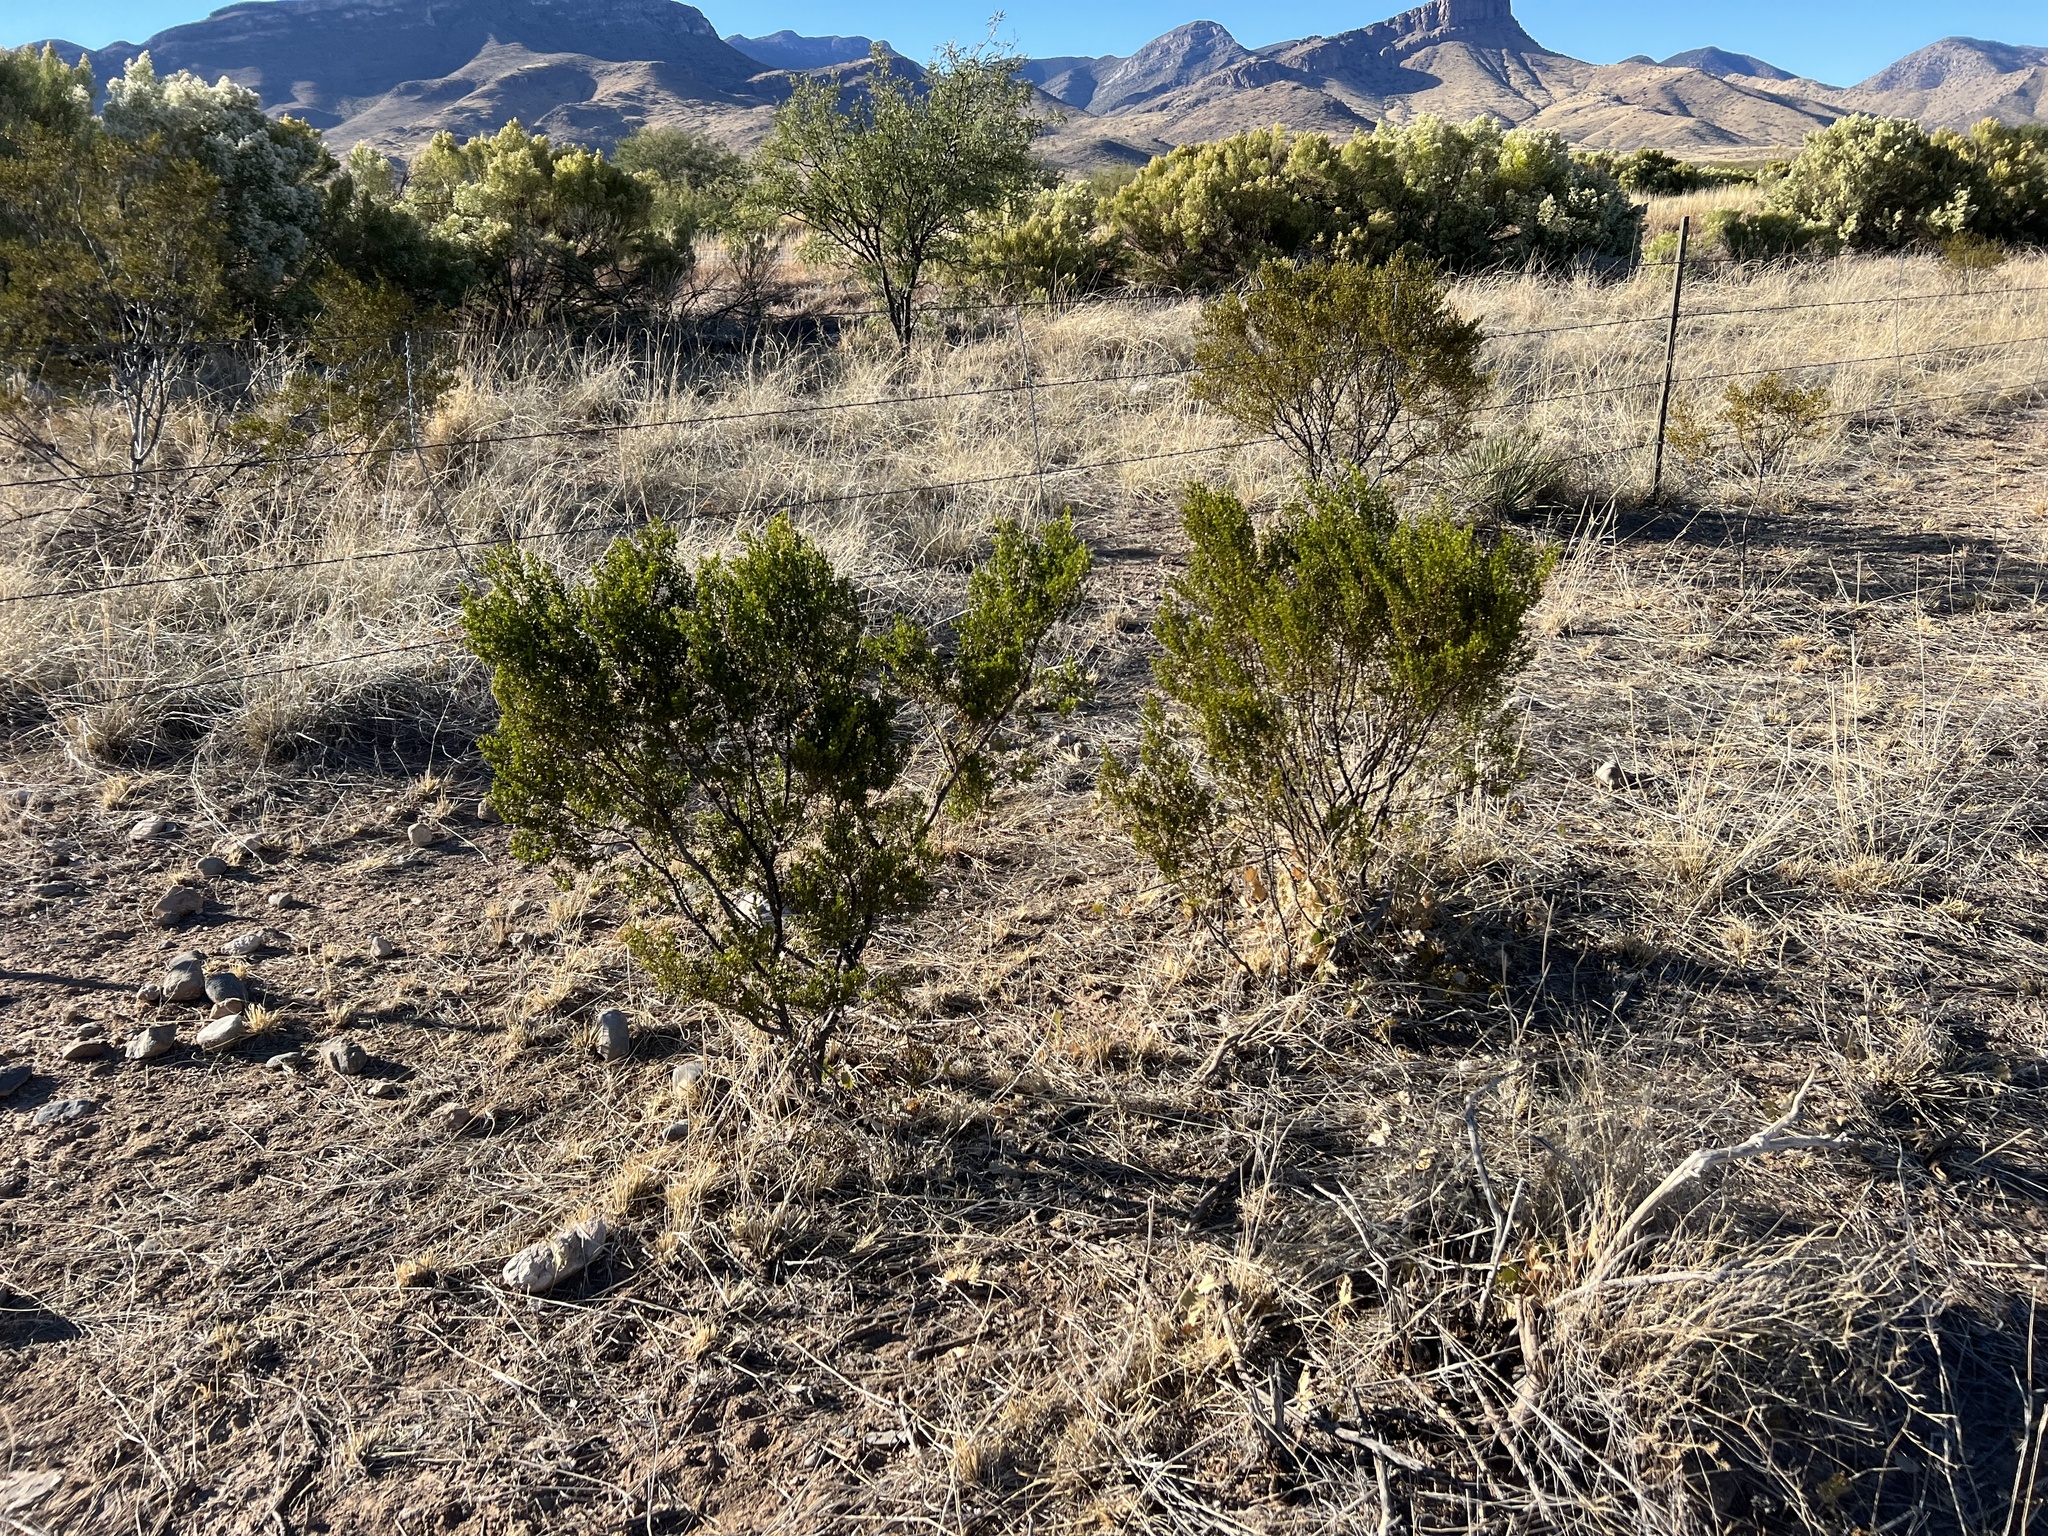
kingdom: Plantae
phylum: Tracheophyta
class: Magnoliopsida
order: Zygophyllales
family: Zygophyllaceae
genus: Larrea
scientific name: Larrea tridentata
